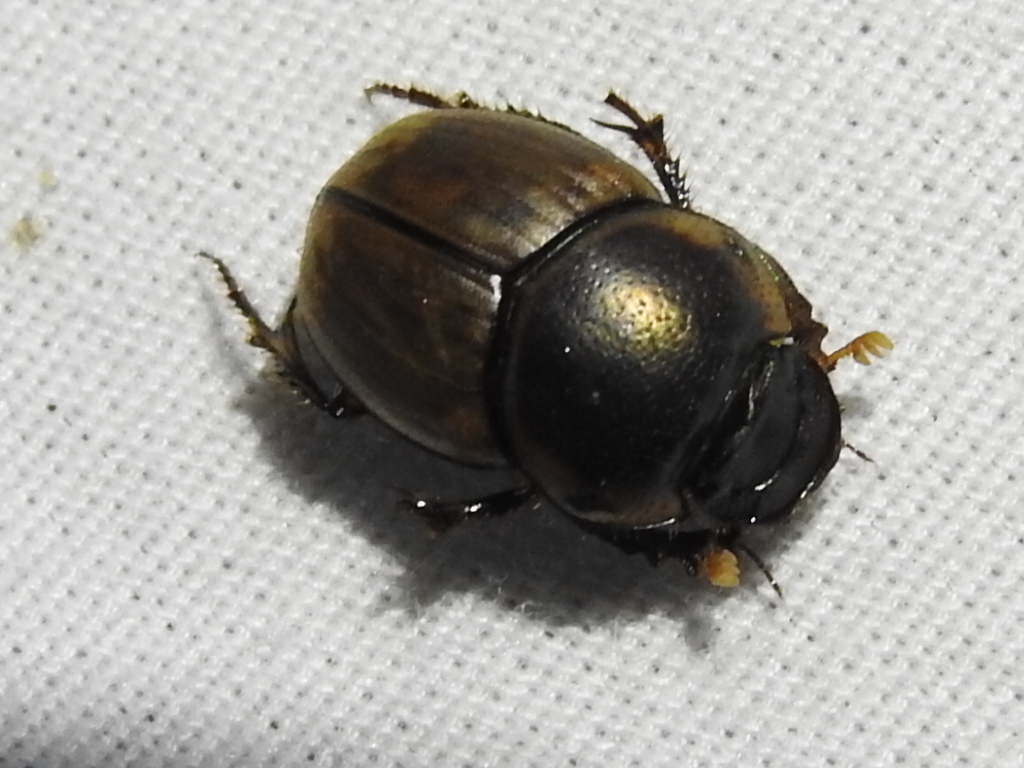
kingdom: Animalia
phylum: Arthropoda
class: Insecta
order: Coleoptera
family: Scarabaeidae
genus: Digitonthophagus
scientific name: Digitonthophagus gazella
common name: Brown dung beetle
